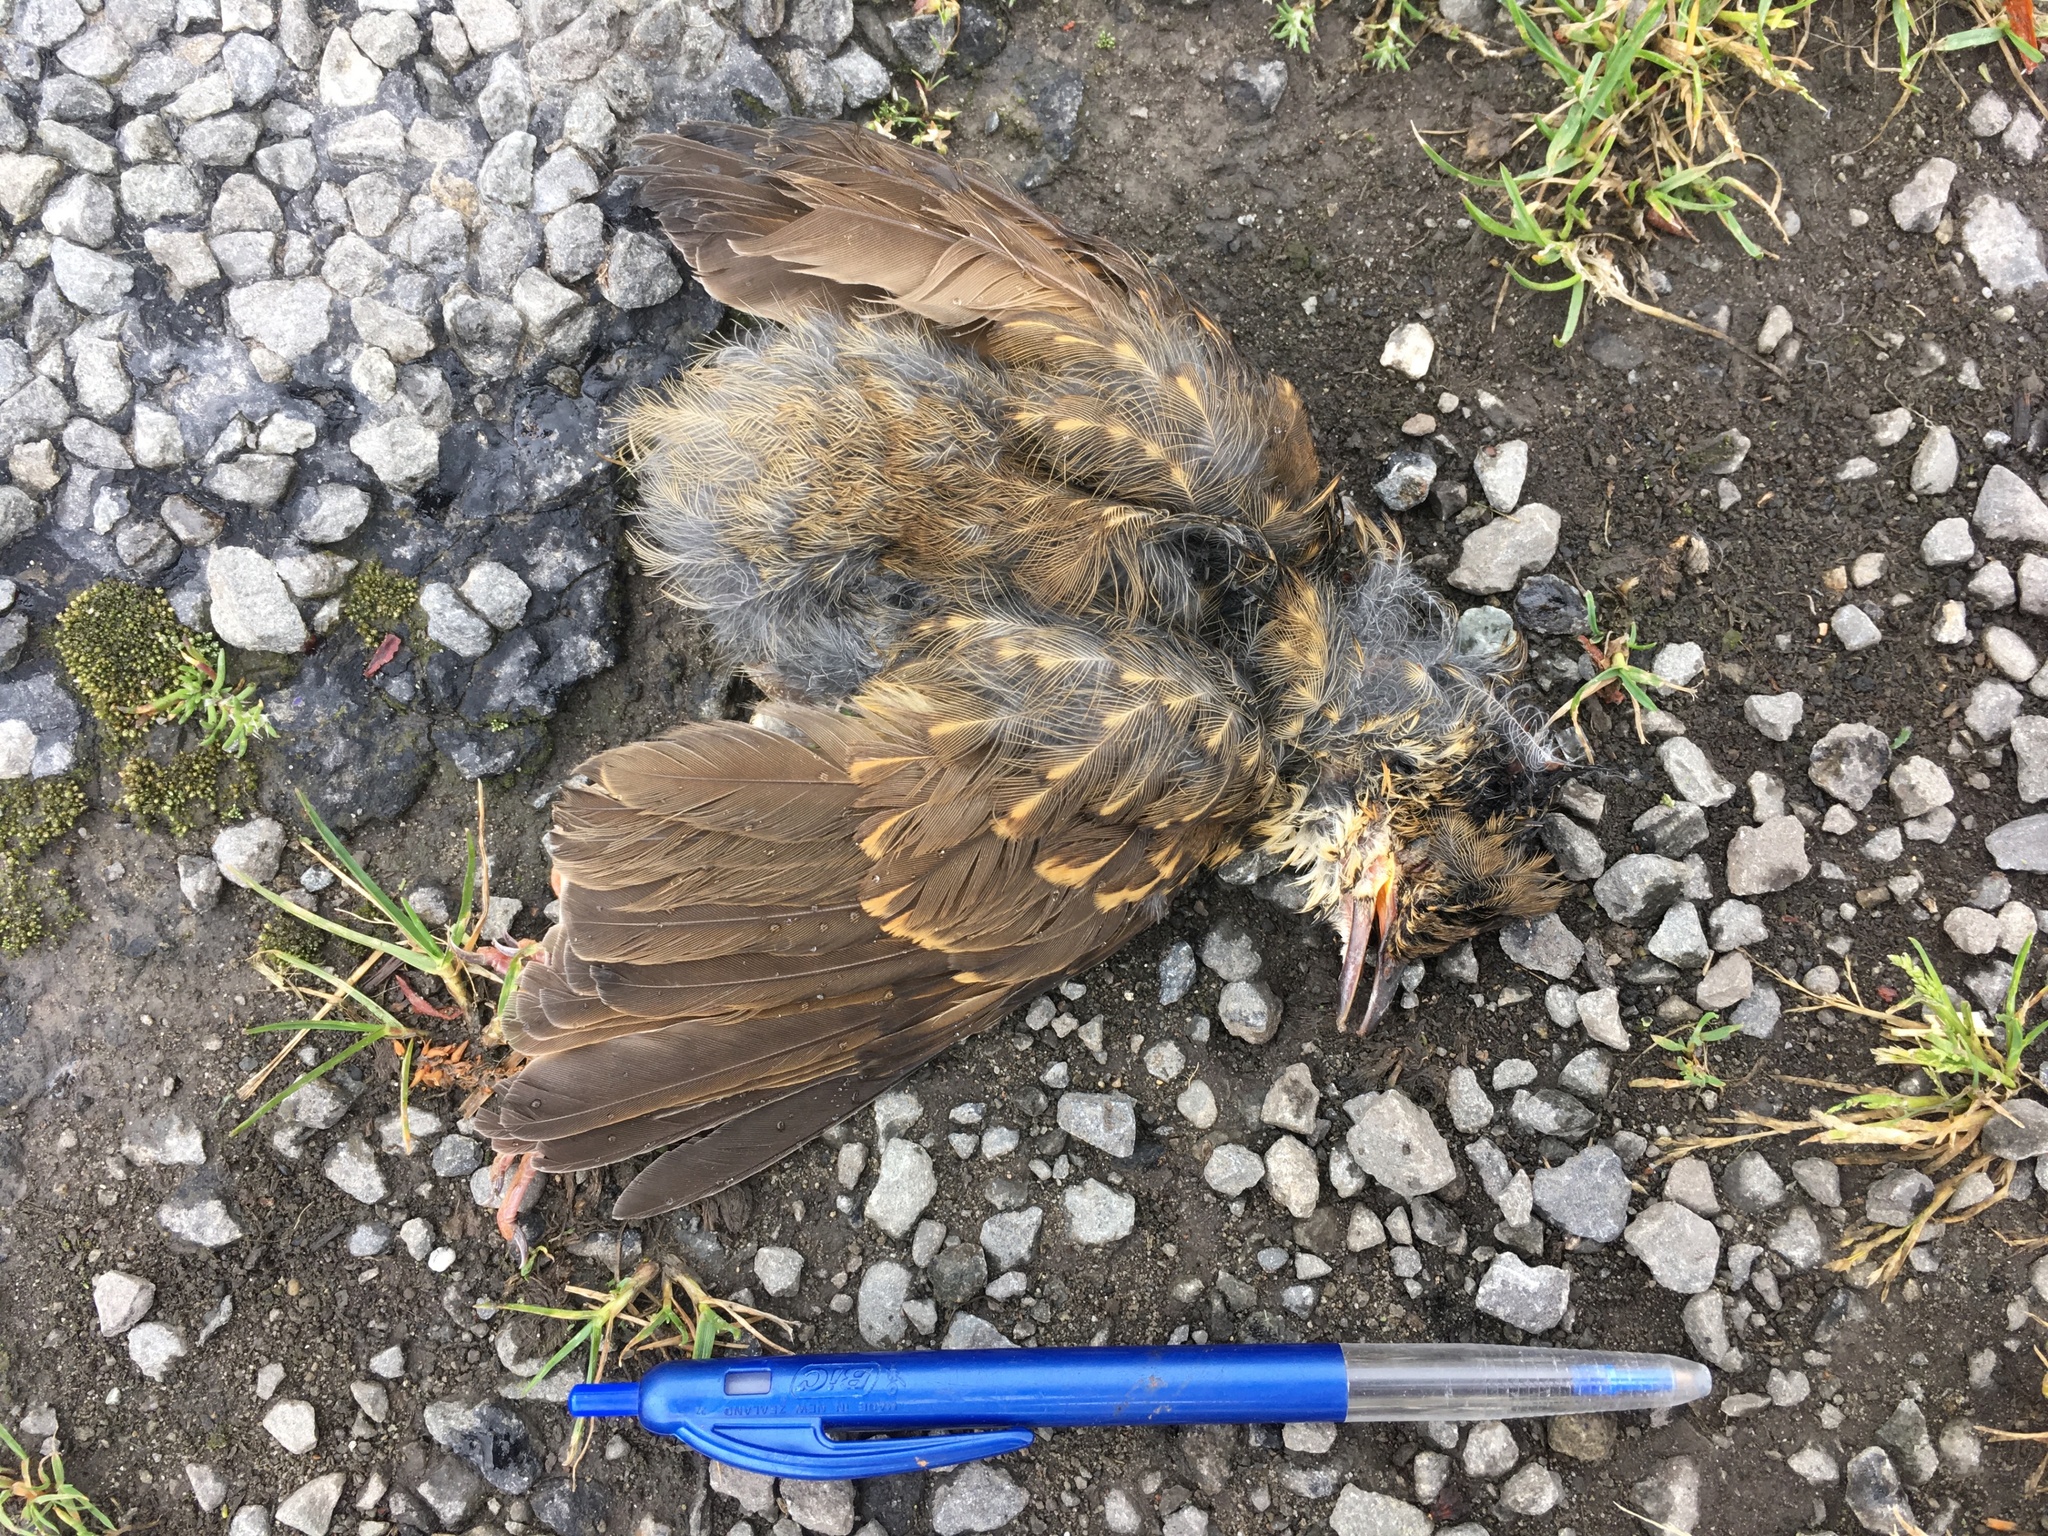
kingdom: Animalia
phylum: Chordata
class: Aves
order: Passeriformes
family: Turdidae
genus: Turdus
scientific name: Turdus philomelos
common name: Song thrush
